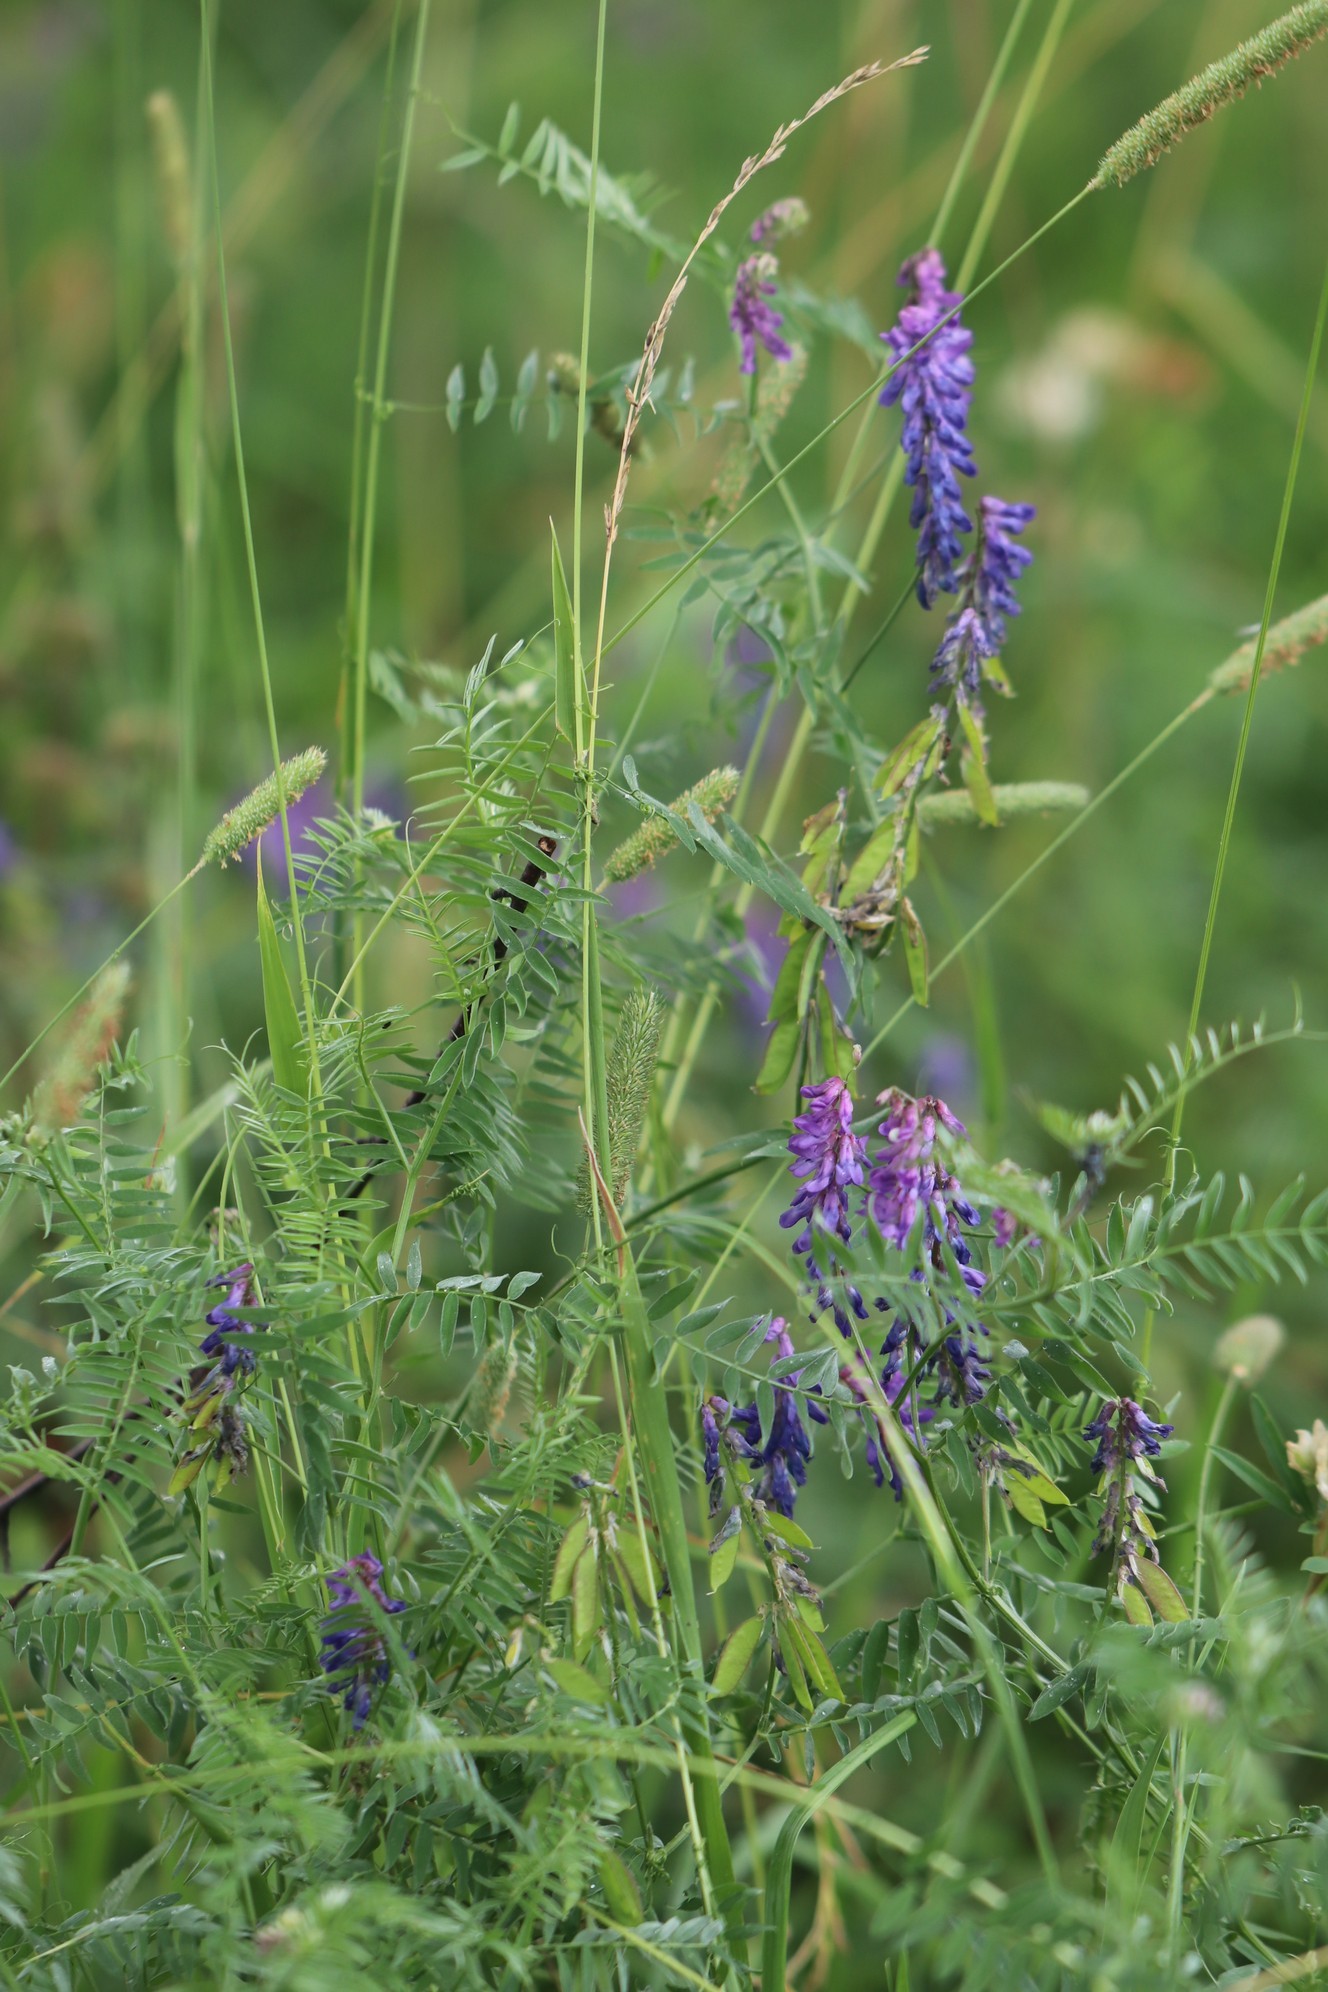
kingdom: Plantae
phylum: Tracheophyta
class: Magnoliopsida
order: Fabales
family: Fabaceae
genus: Vicia
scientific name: Vicia cracca
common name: Bird vetch
